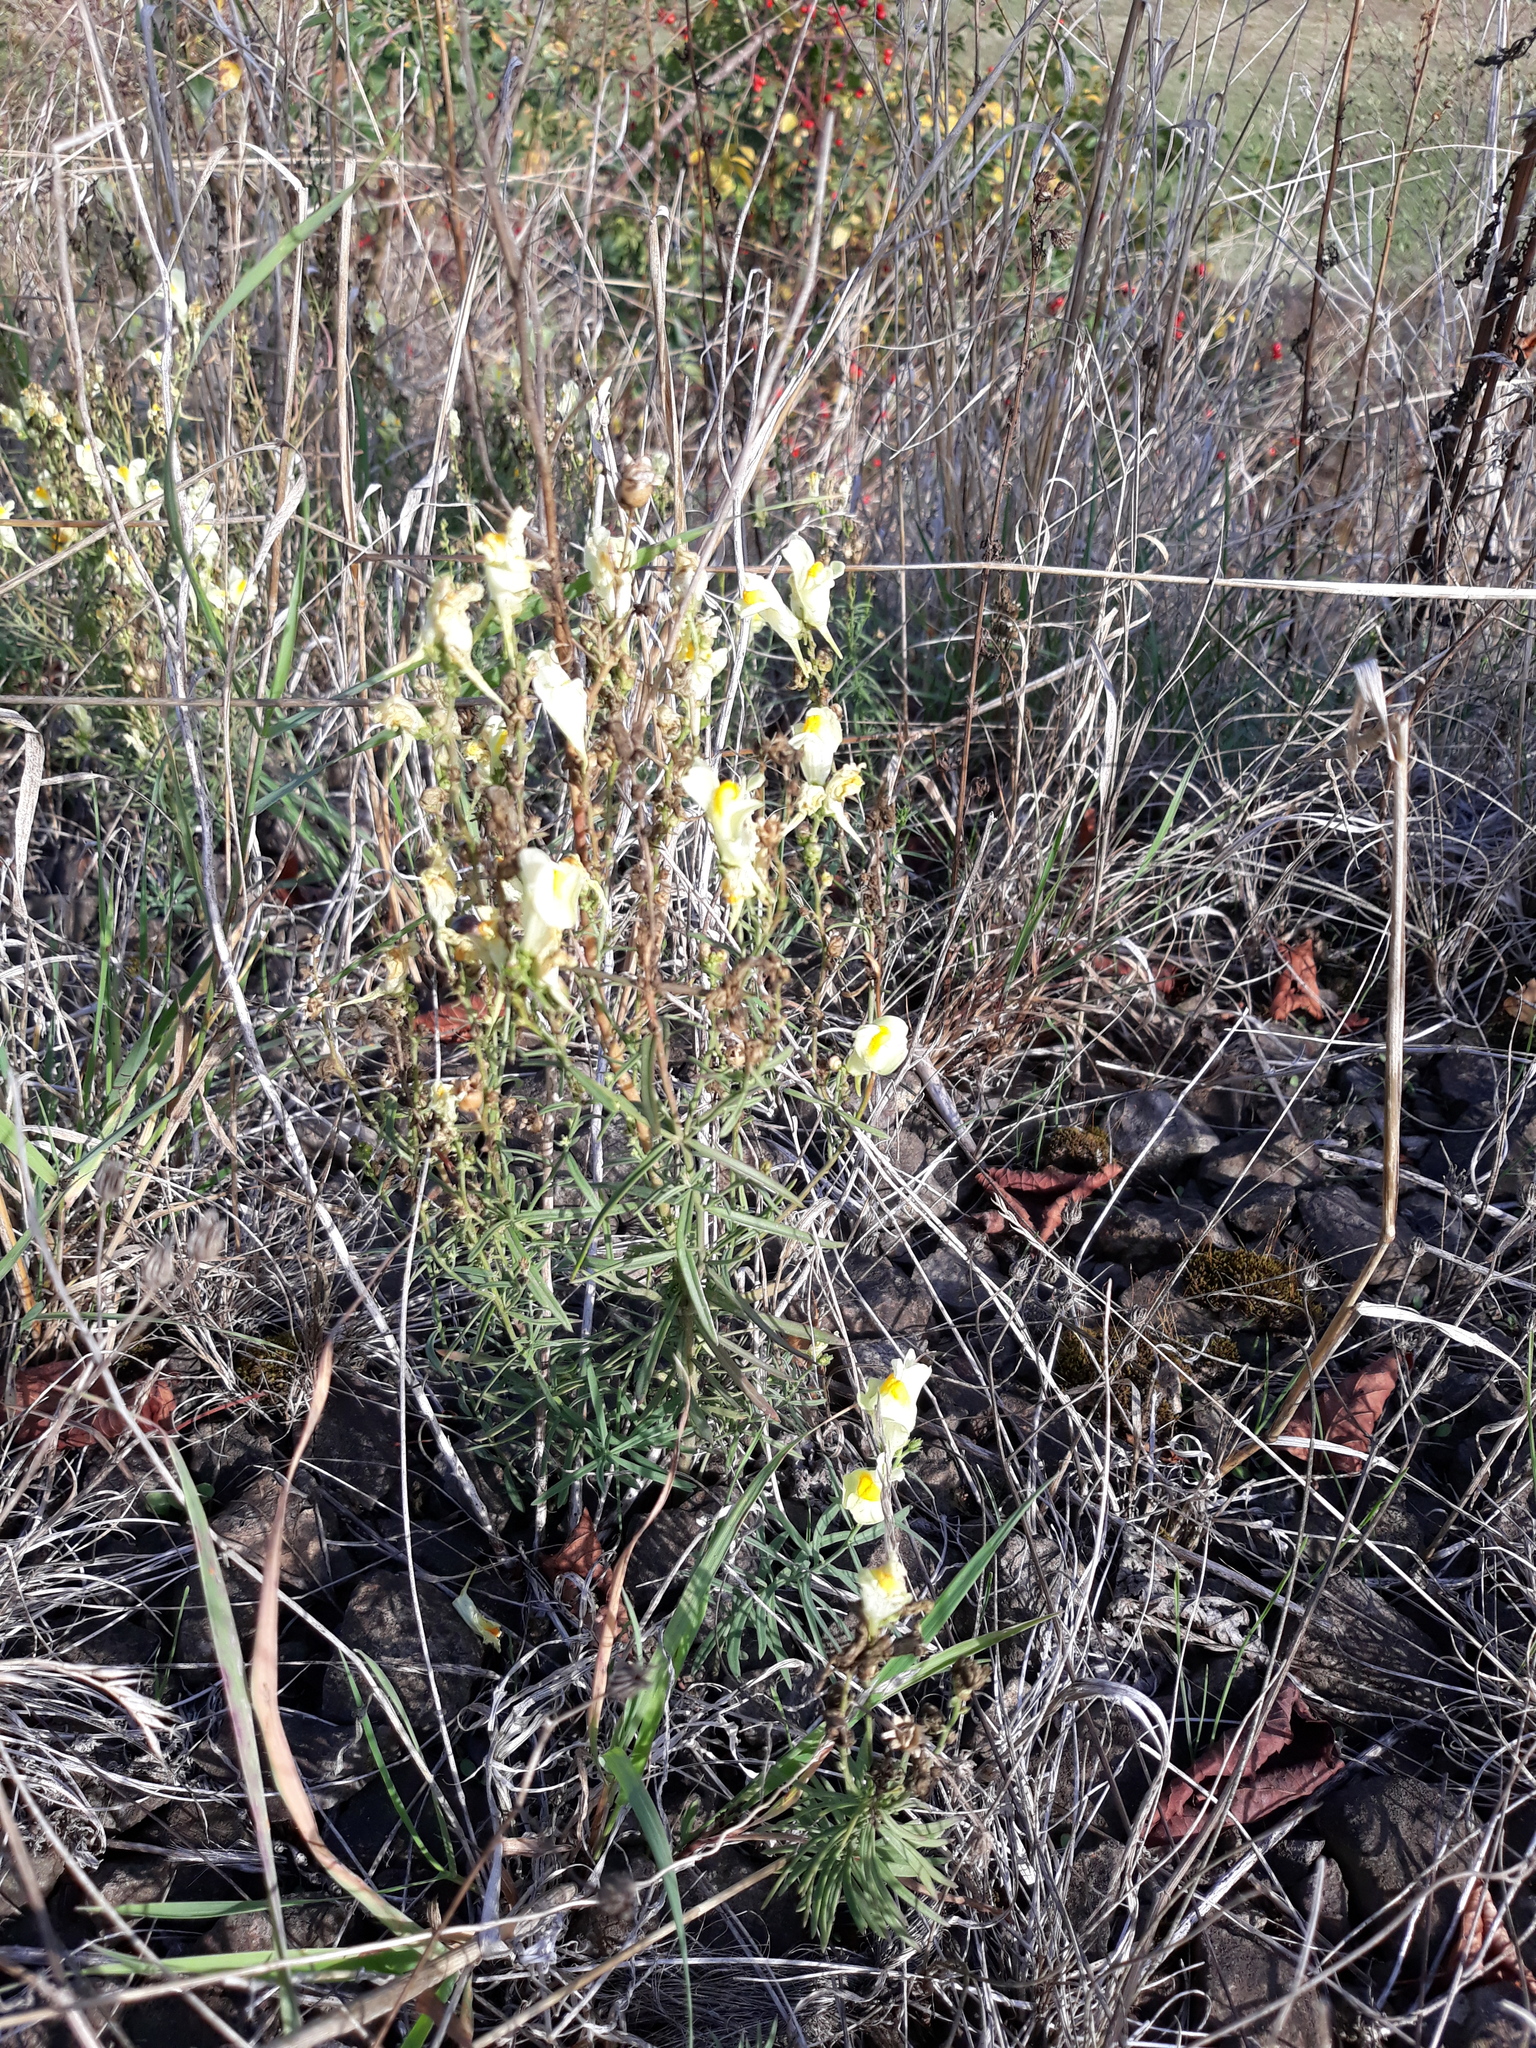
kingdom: Plantae
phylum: Tracheophyta
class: Magnoliopsida
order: Lamiales
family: Plantaginaceae
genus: Linaria
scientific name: Linaria vulgaris
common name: Butter and eggs
